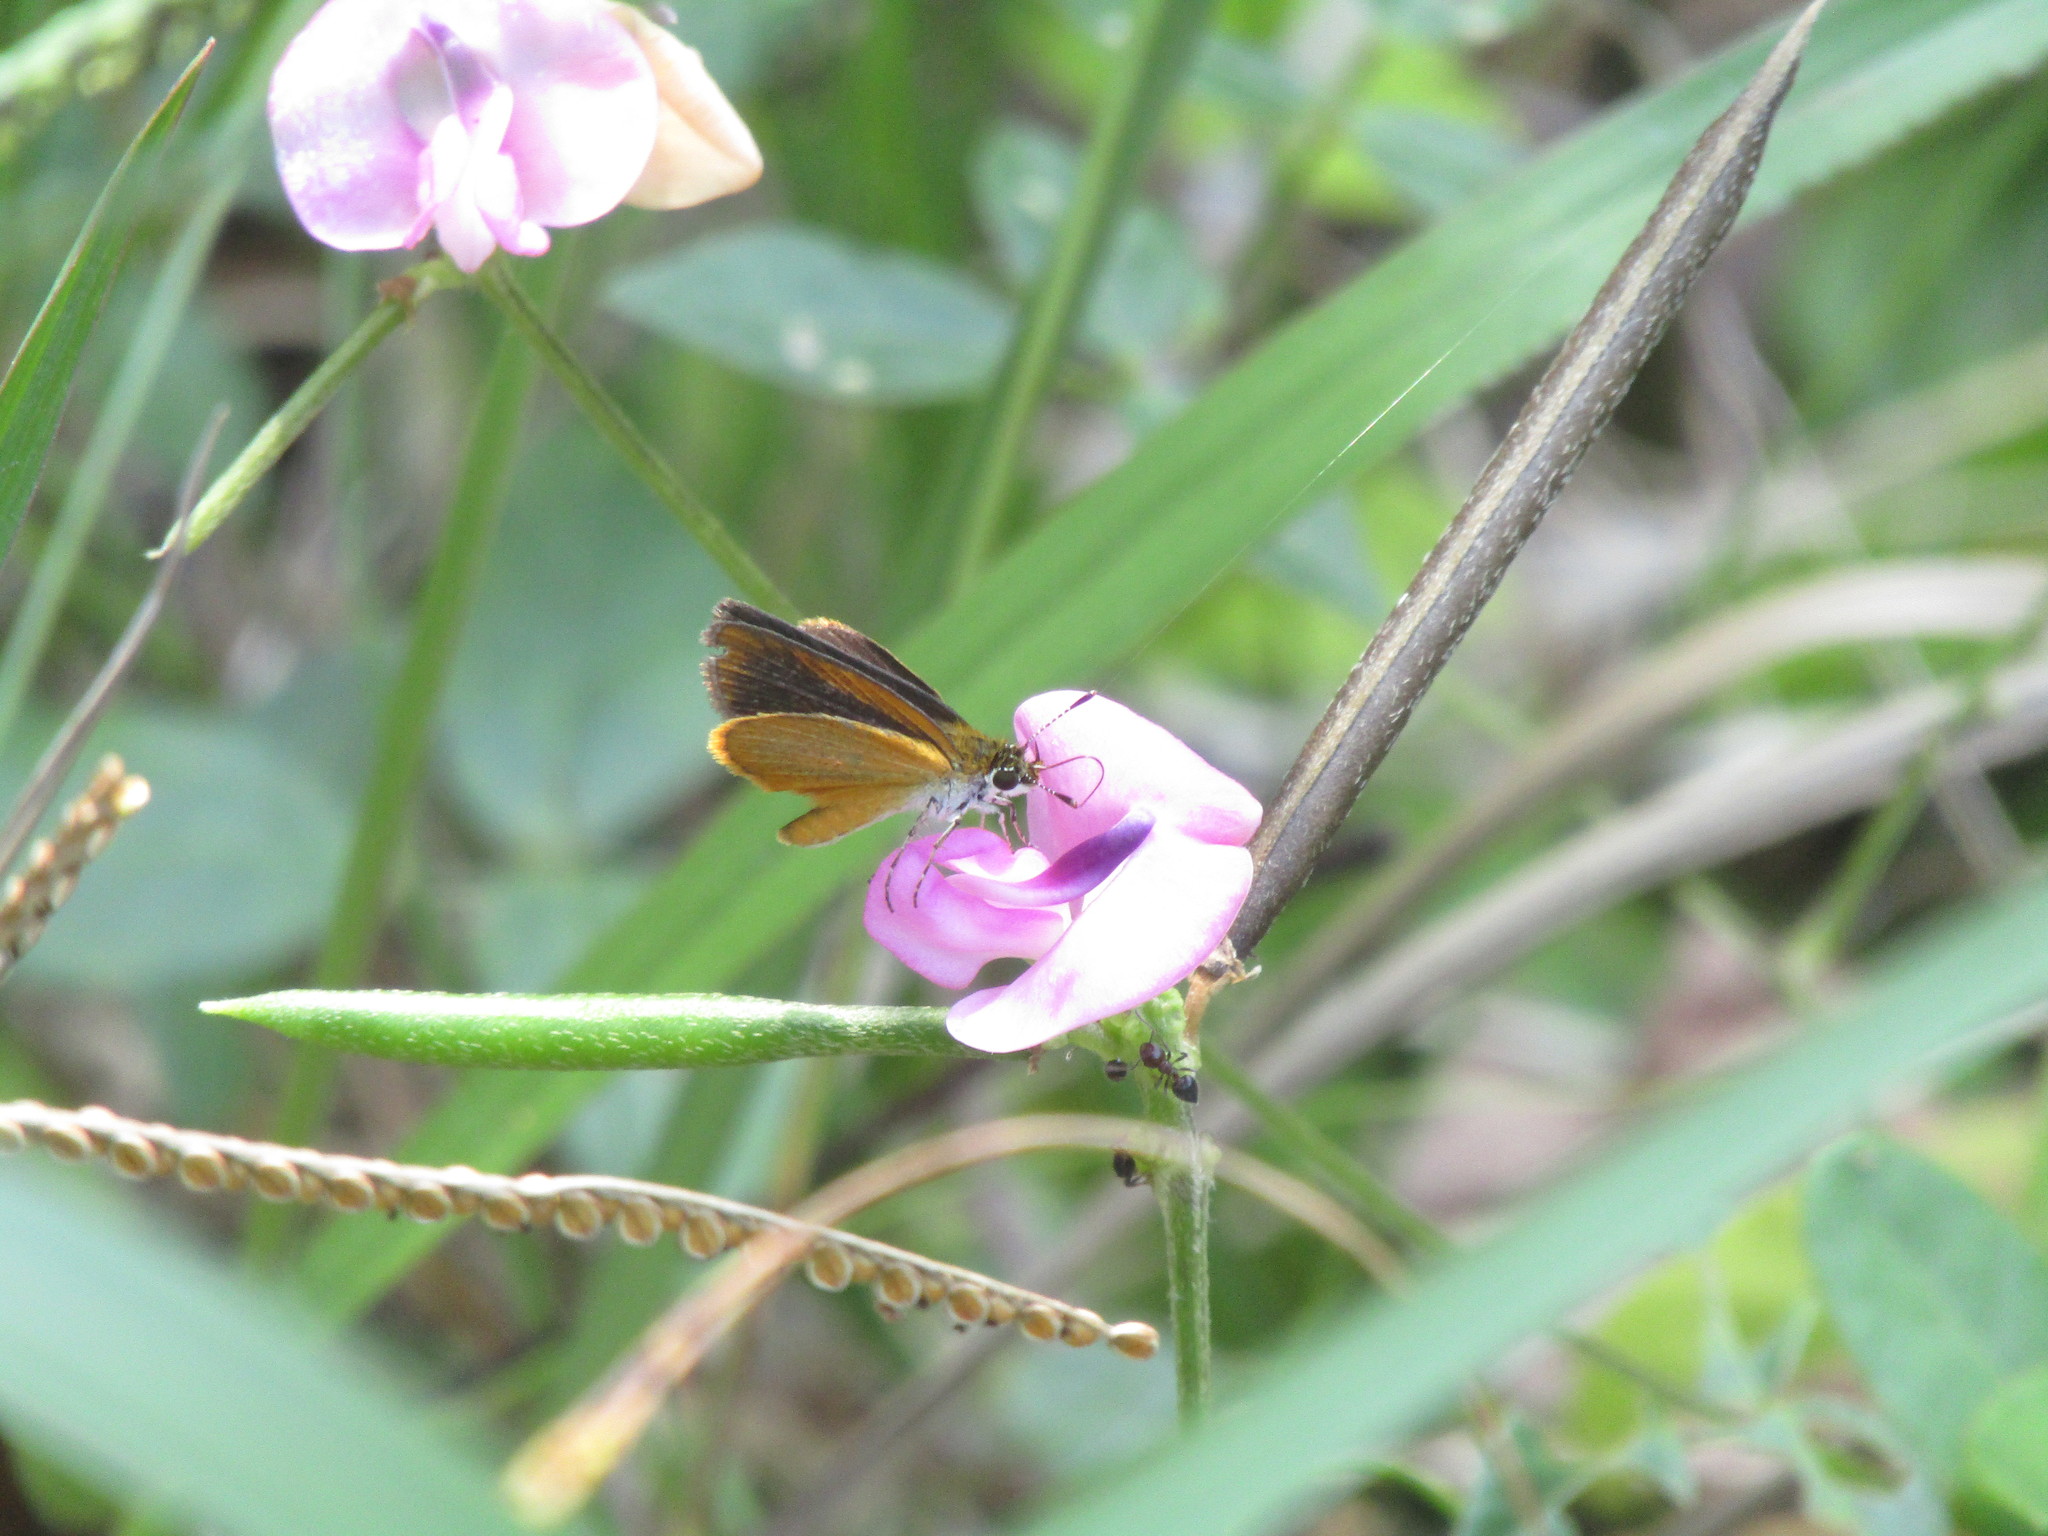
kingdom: Animalia
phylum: Arthropoda
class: Insecta
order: Lepidoptera
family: Hesperiidae
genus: Ancyloxypha
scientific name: Ancyloxypha numitor
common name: Least skipper
